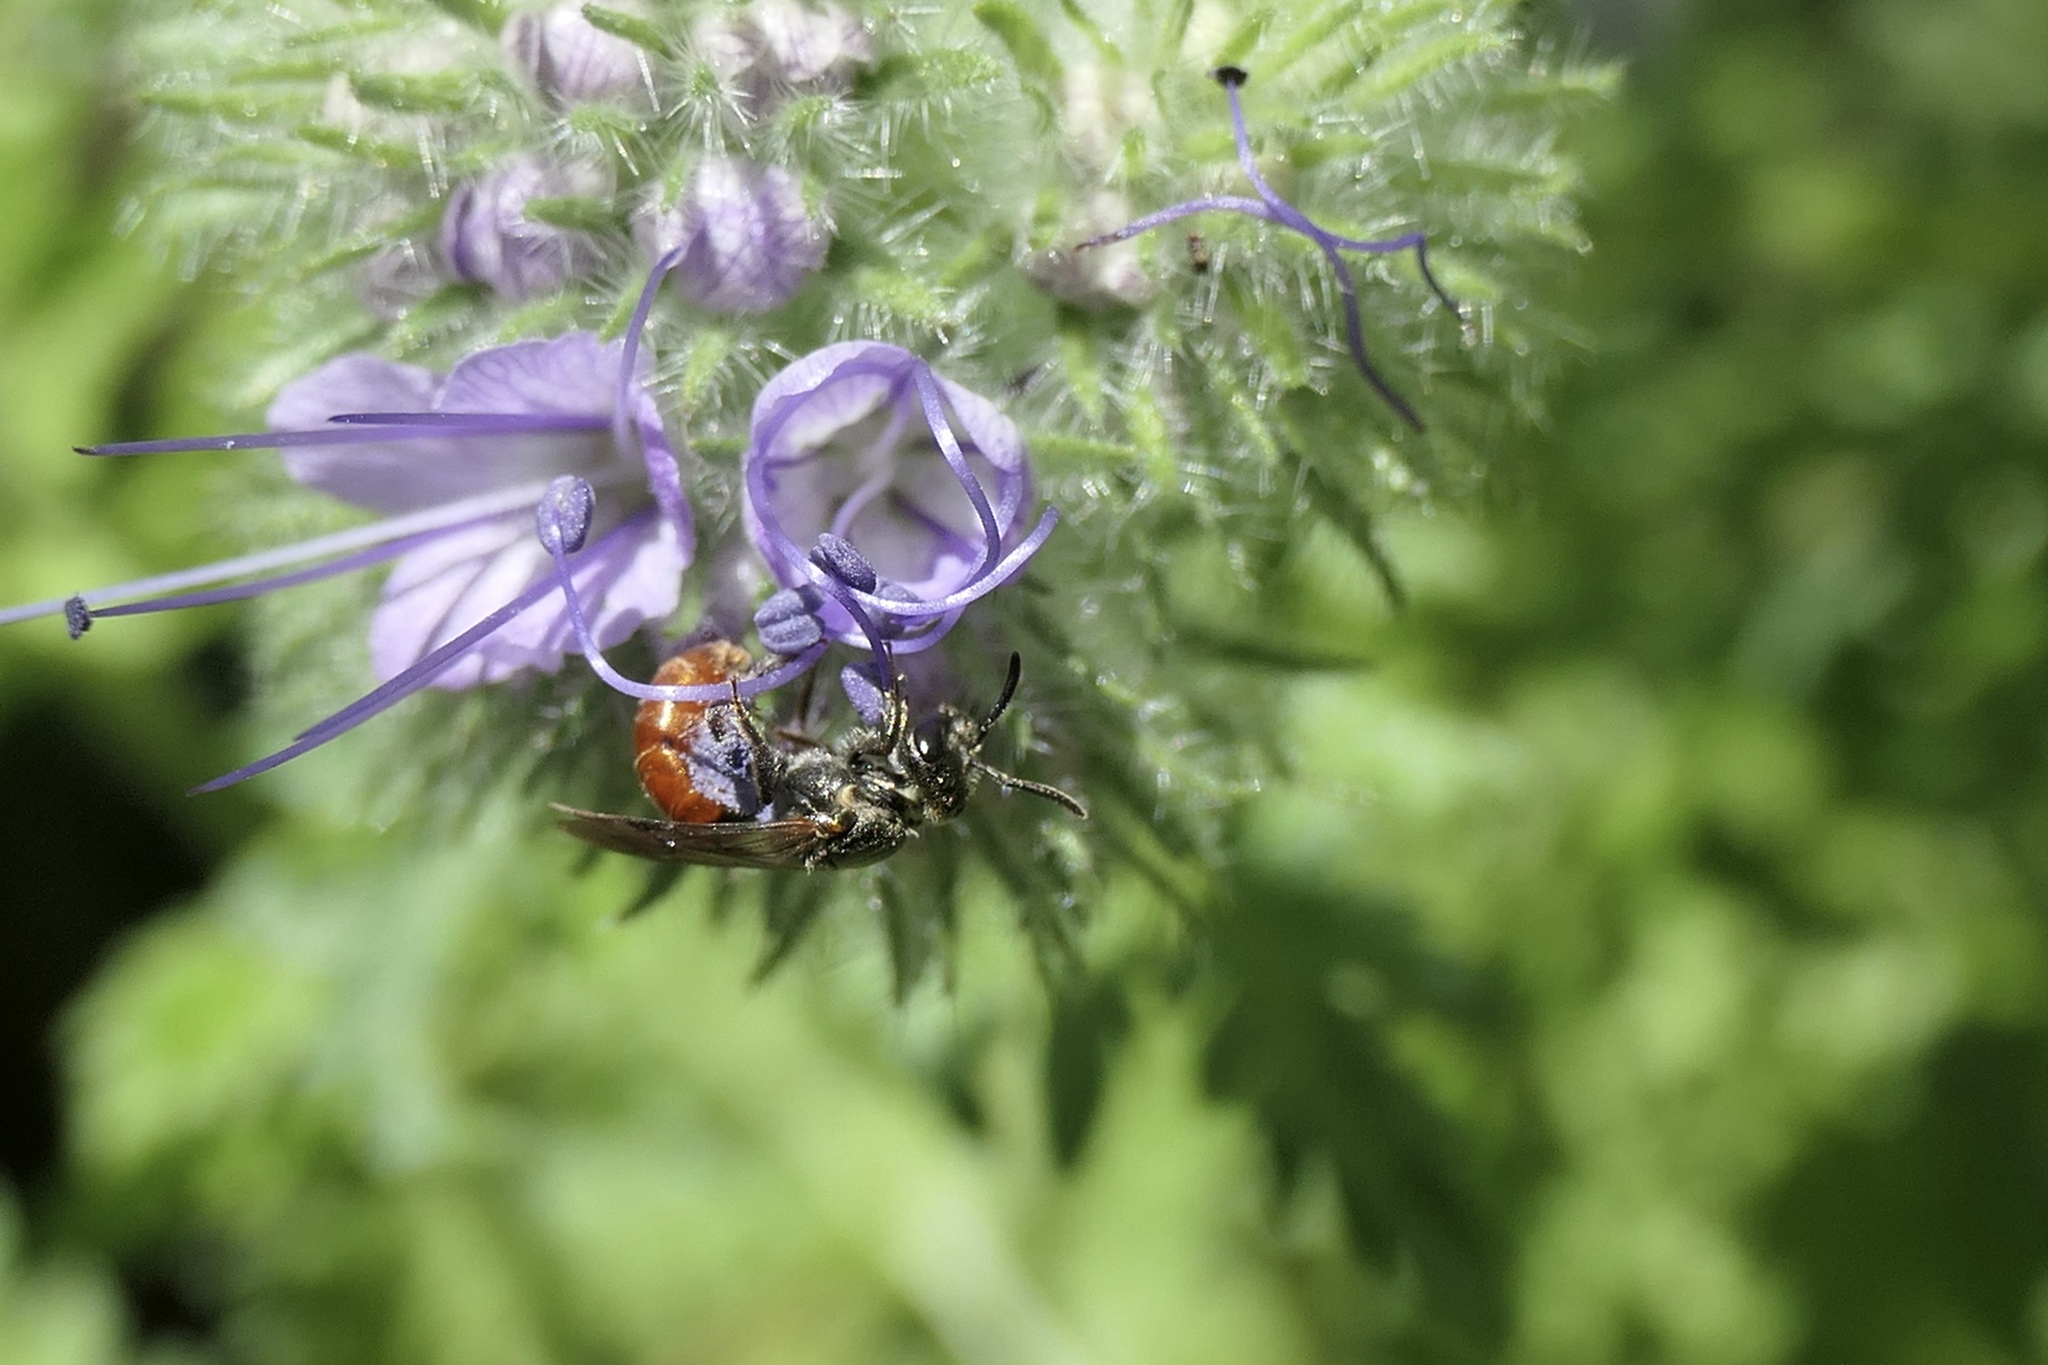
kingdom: Animalia
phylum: Arthropoda
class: Insecta
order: Hymenoptera
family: Halictidae
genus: Lasioglossum
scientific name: Lasioglossum ovaliceps
